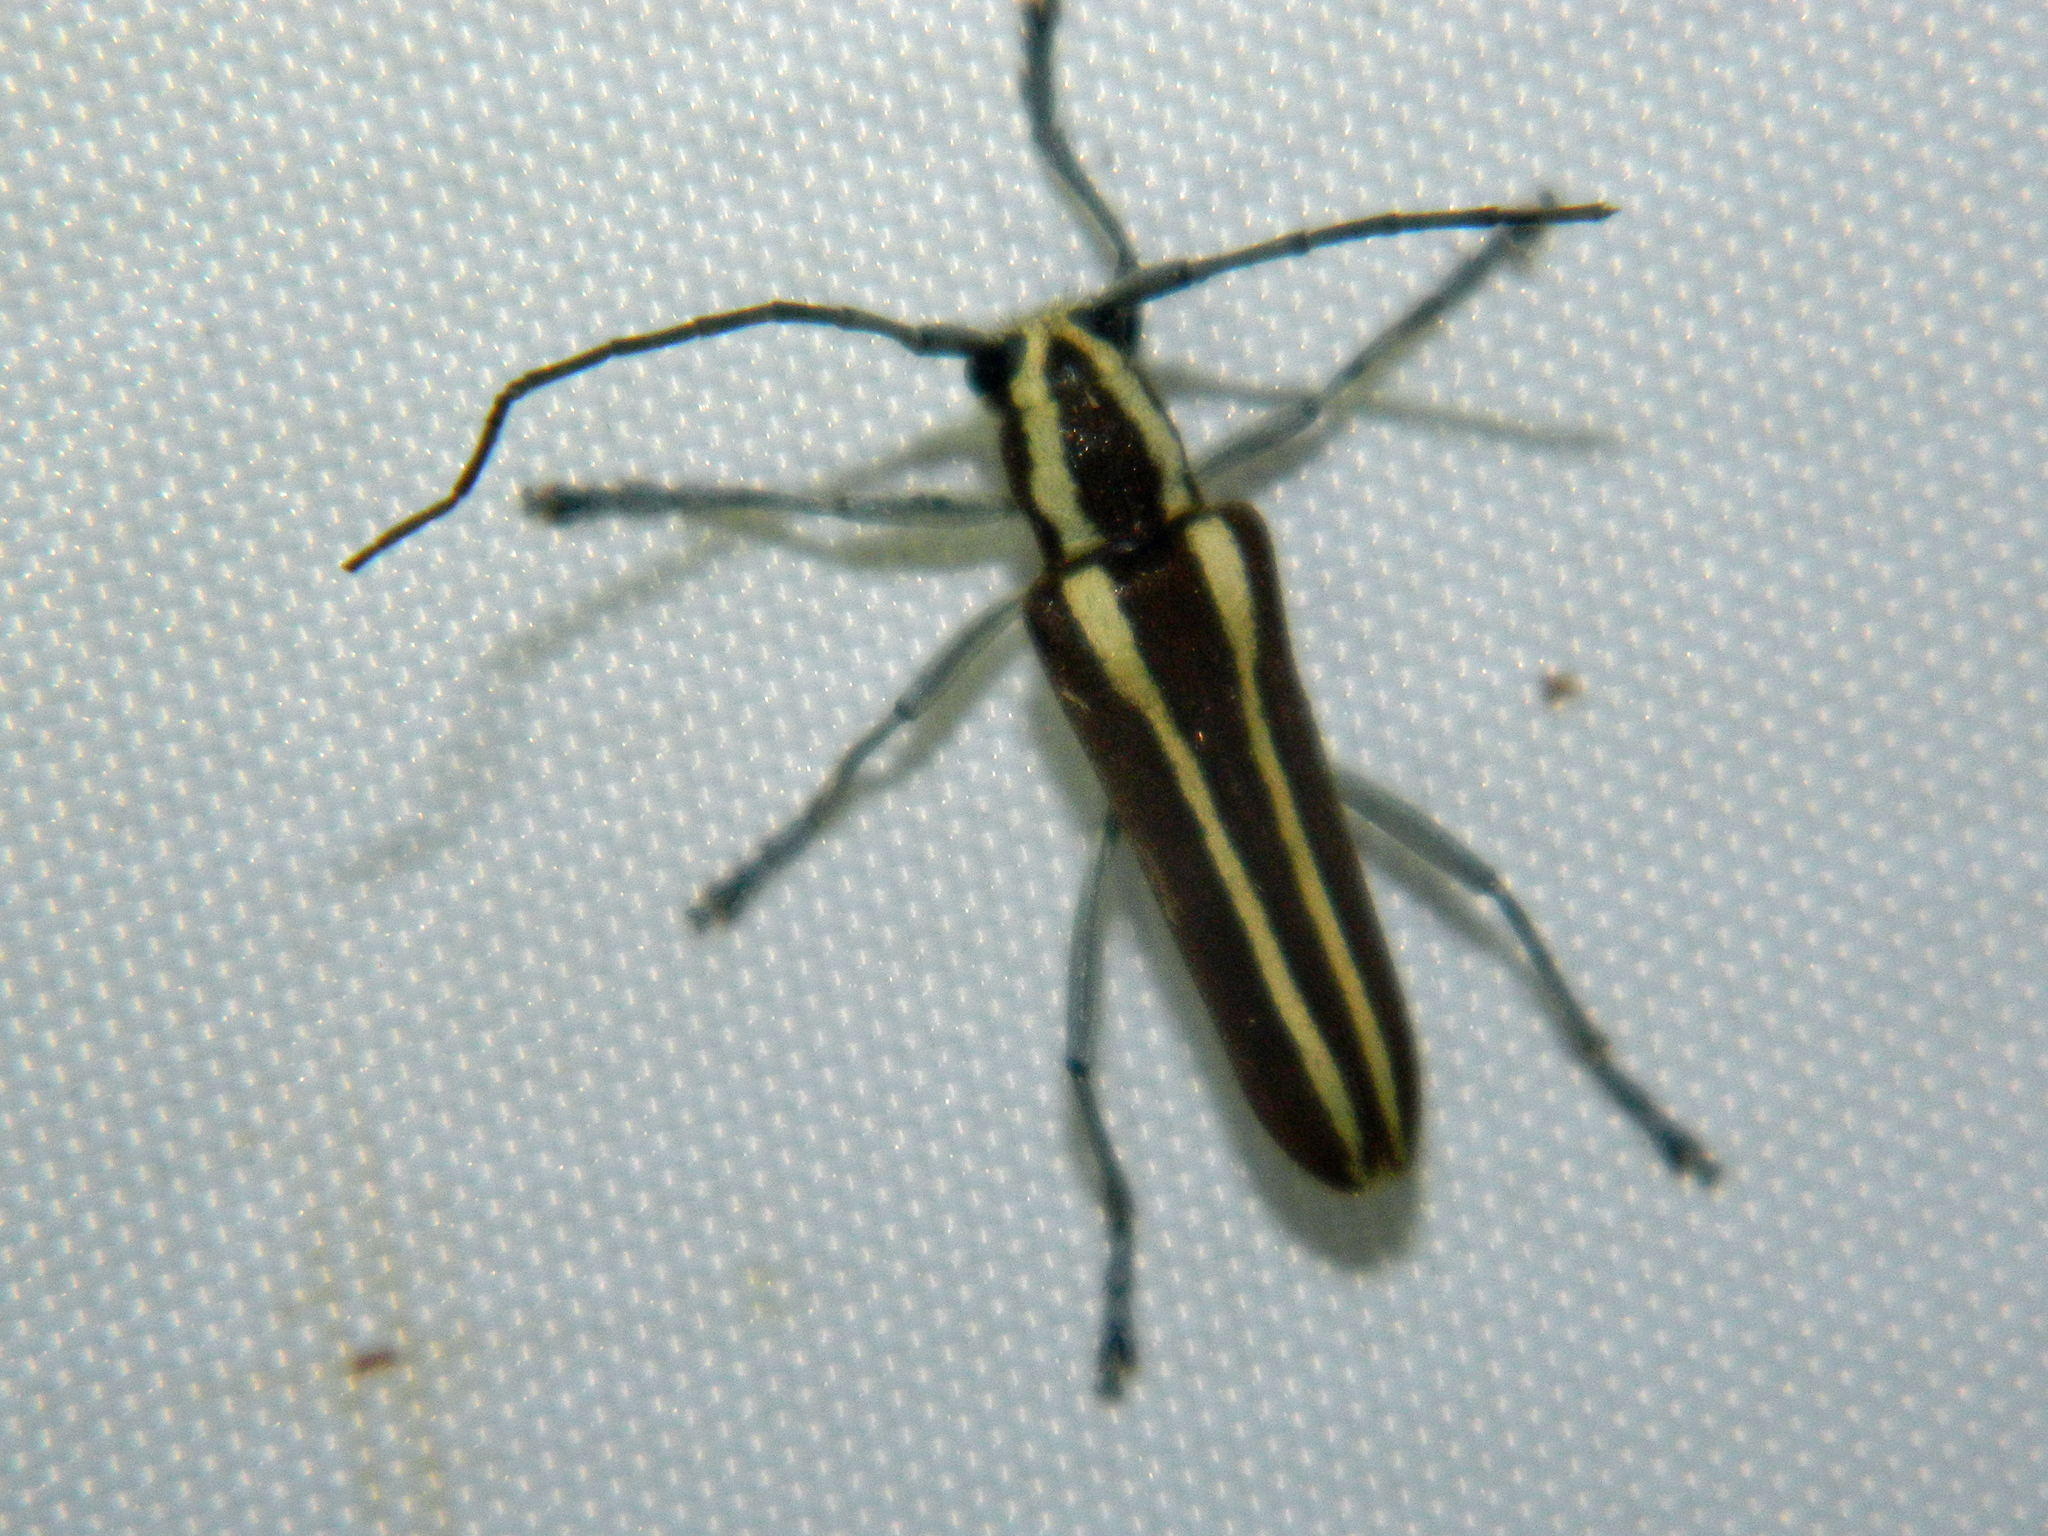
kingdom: Animalia
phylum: Arthropoda
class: Insecta
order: Coleoptera
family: Cerambycidae
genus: Saperda
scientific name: Saperda candida
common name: Round-headed borer
